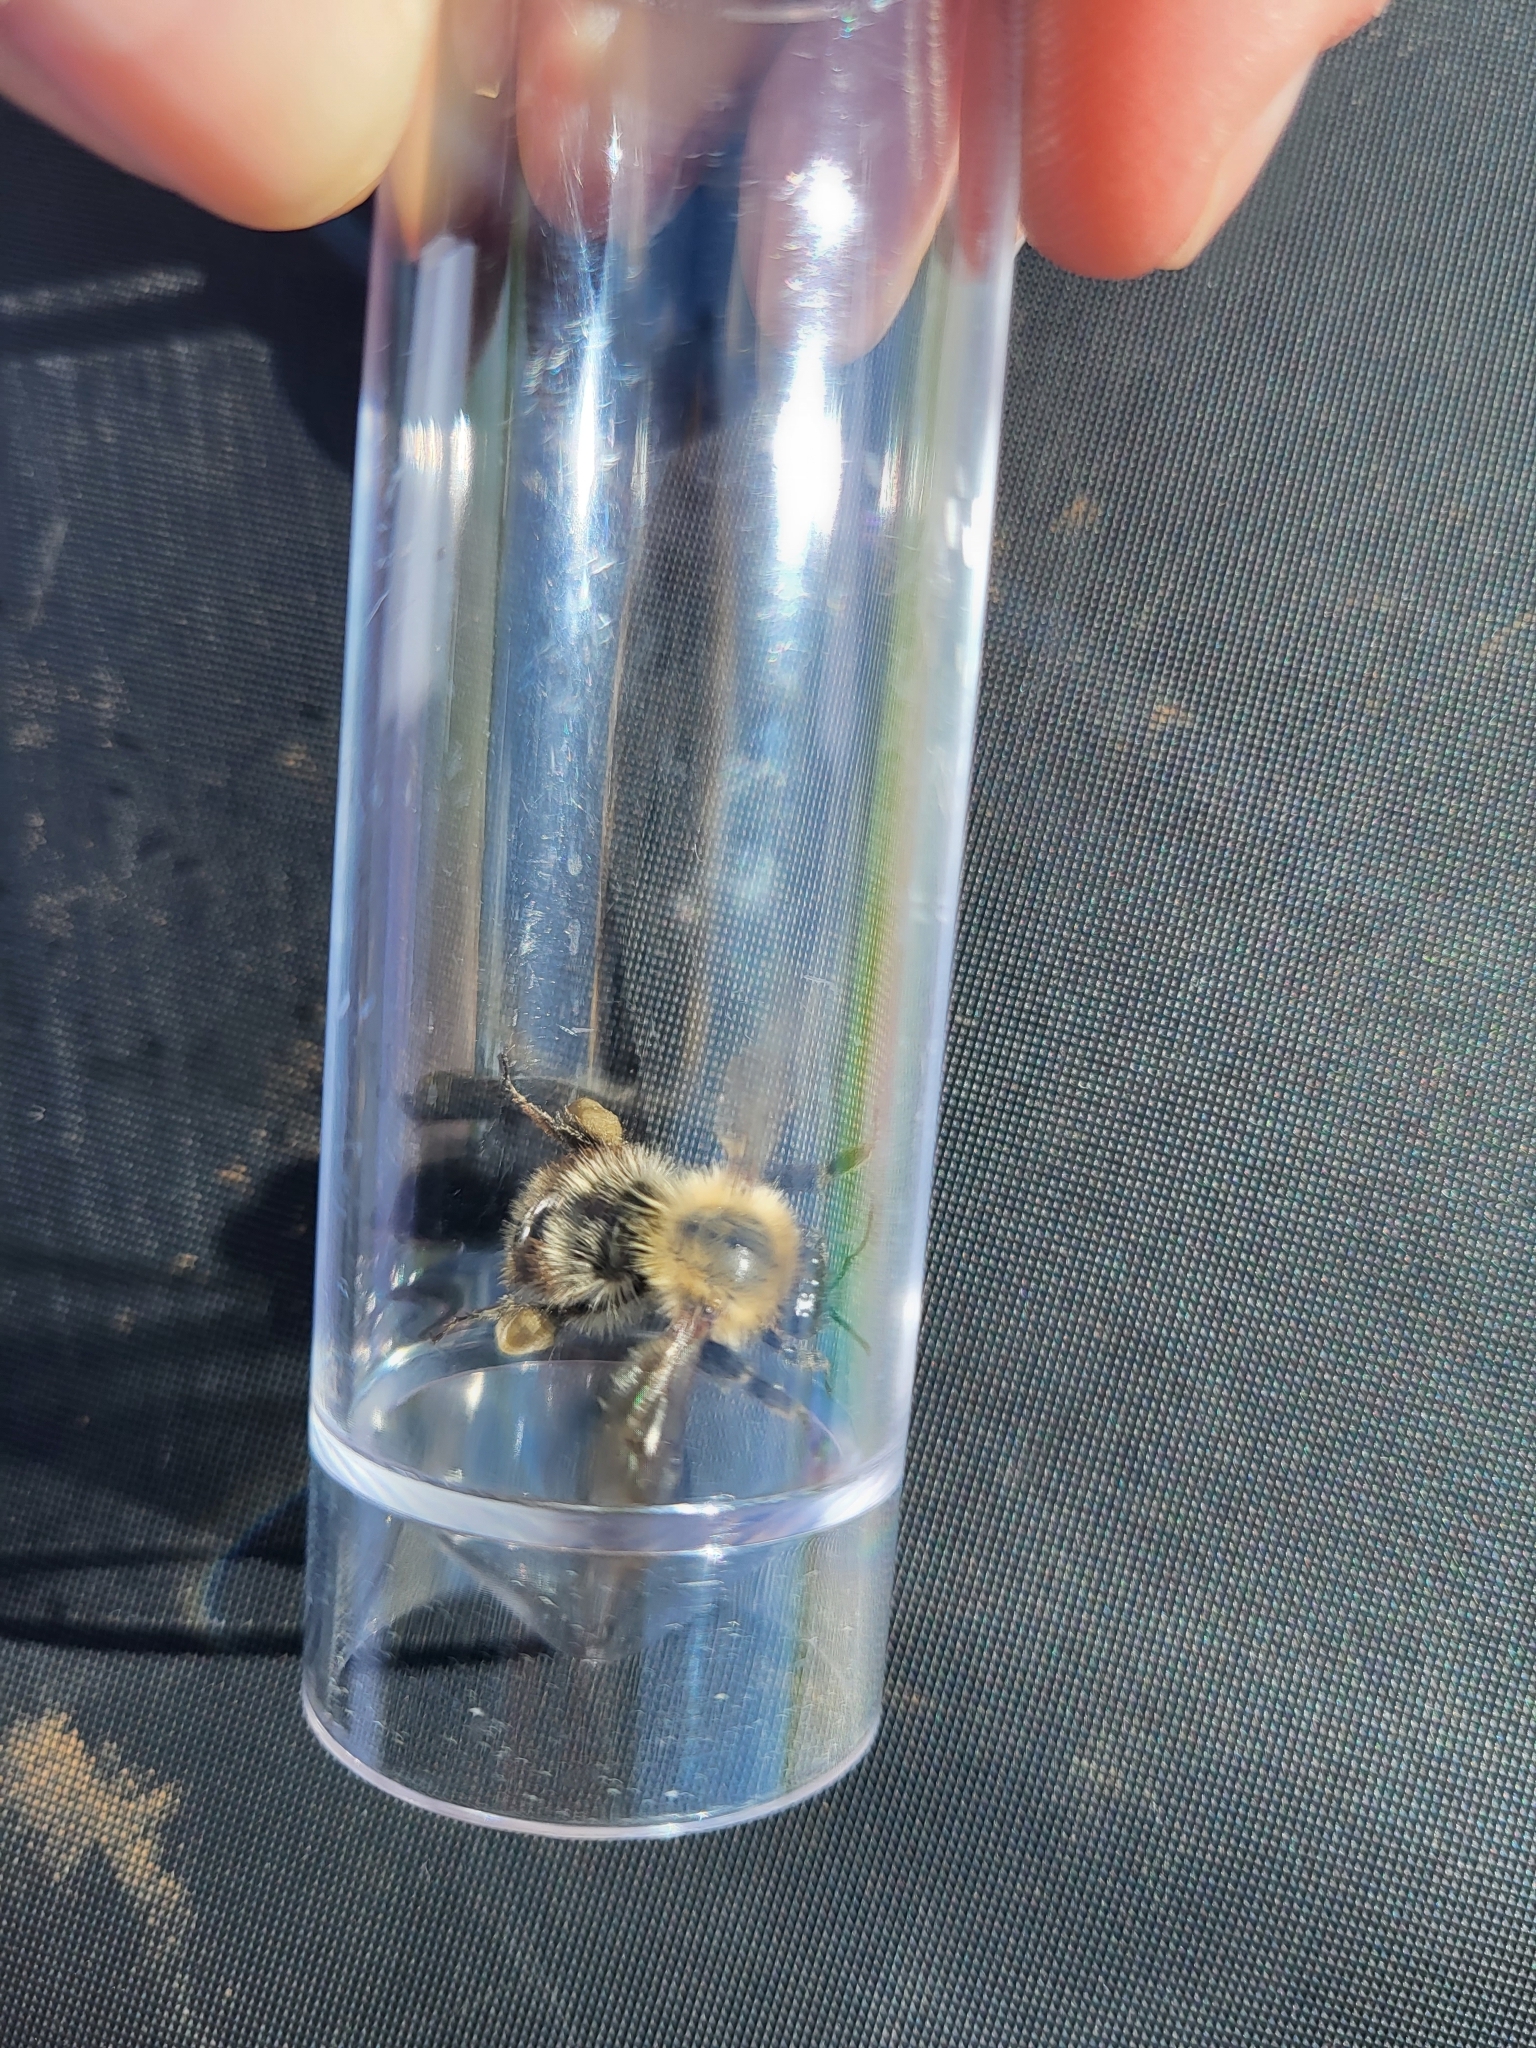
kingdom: Animalia
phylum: Arthropoda
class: Insecta
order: Hymenoptera
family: Apidae
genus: Bombus
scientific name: Bombus pascuorum
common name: Common carder bee
